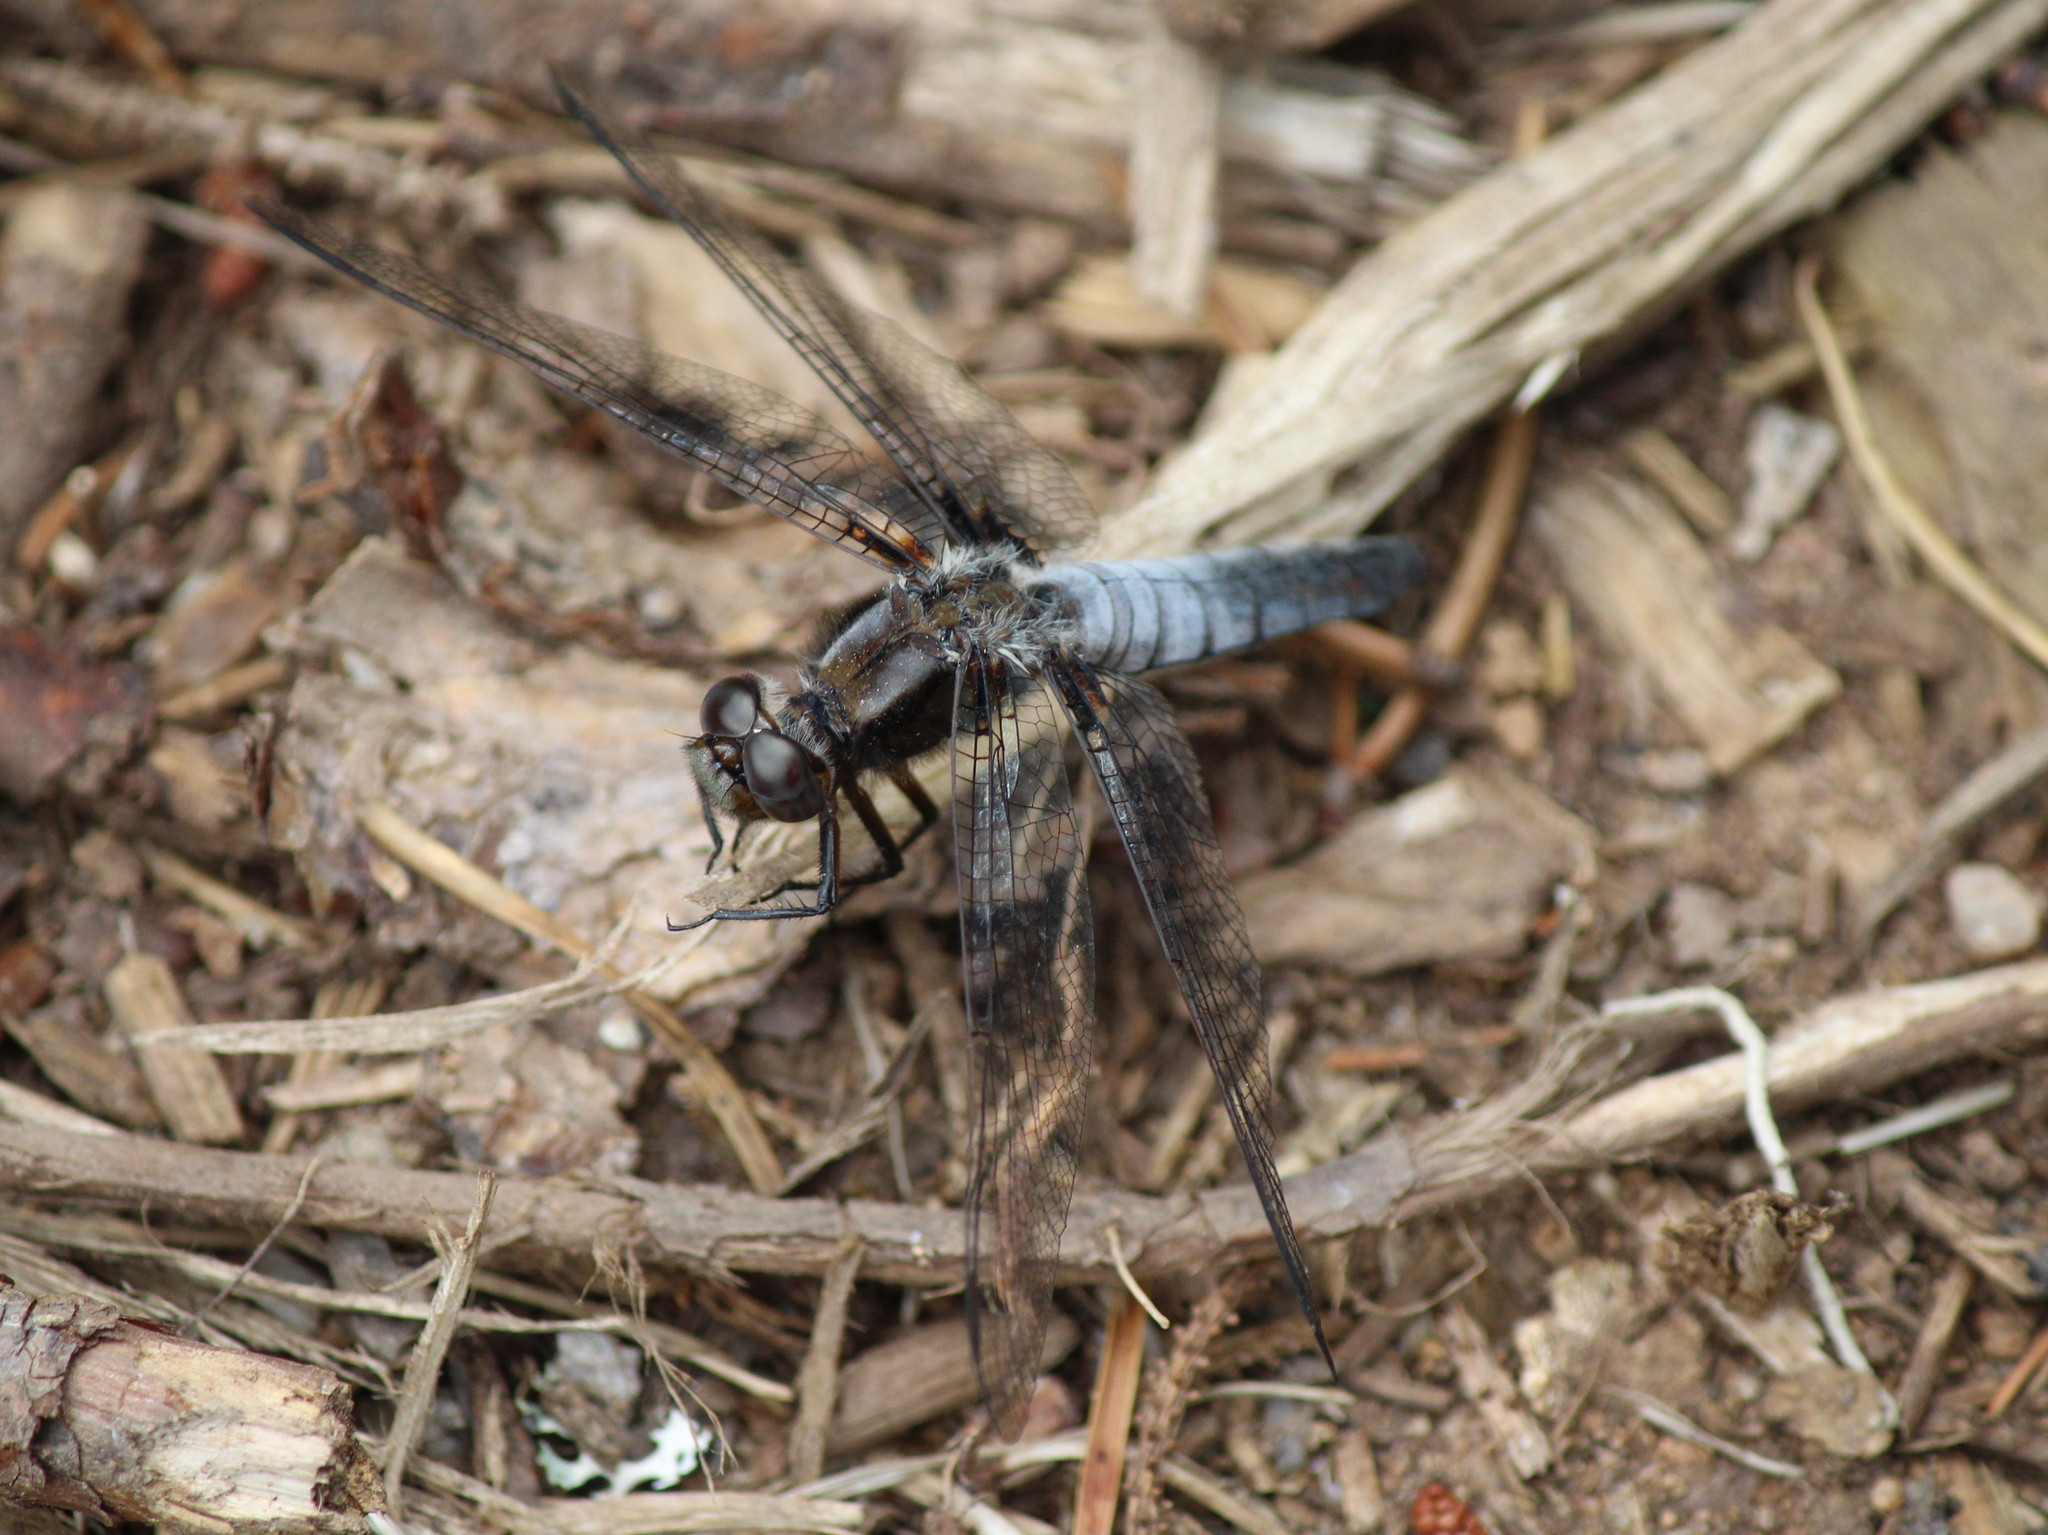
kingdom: Animalia
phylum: Arthropoda
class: Insecta
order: Odonata
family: Libellulidae
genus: Ladona
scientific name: Ladona julia
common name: Chalk-fronted corporal
